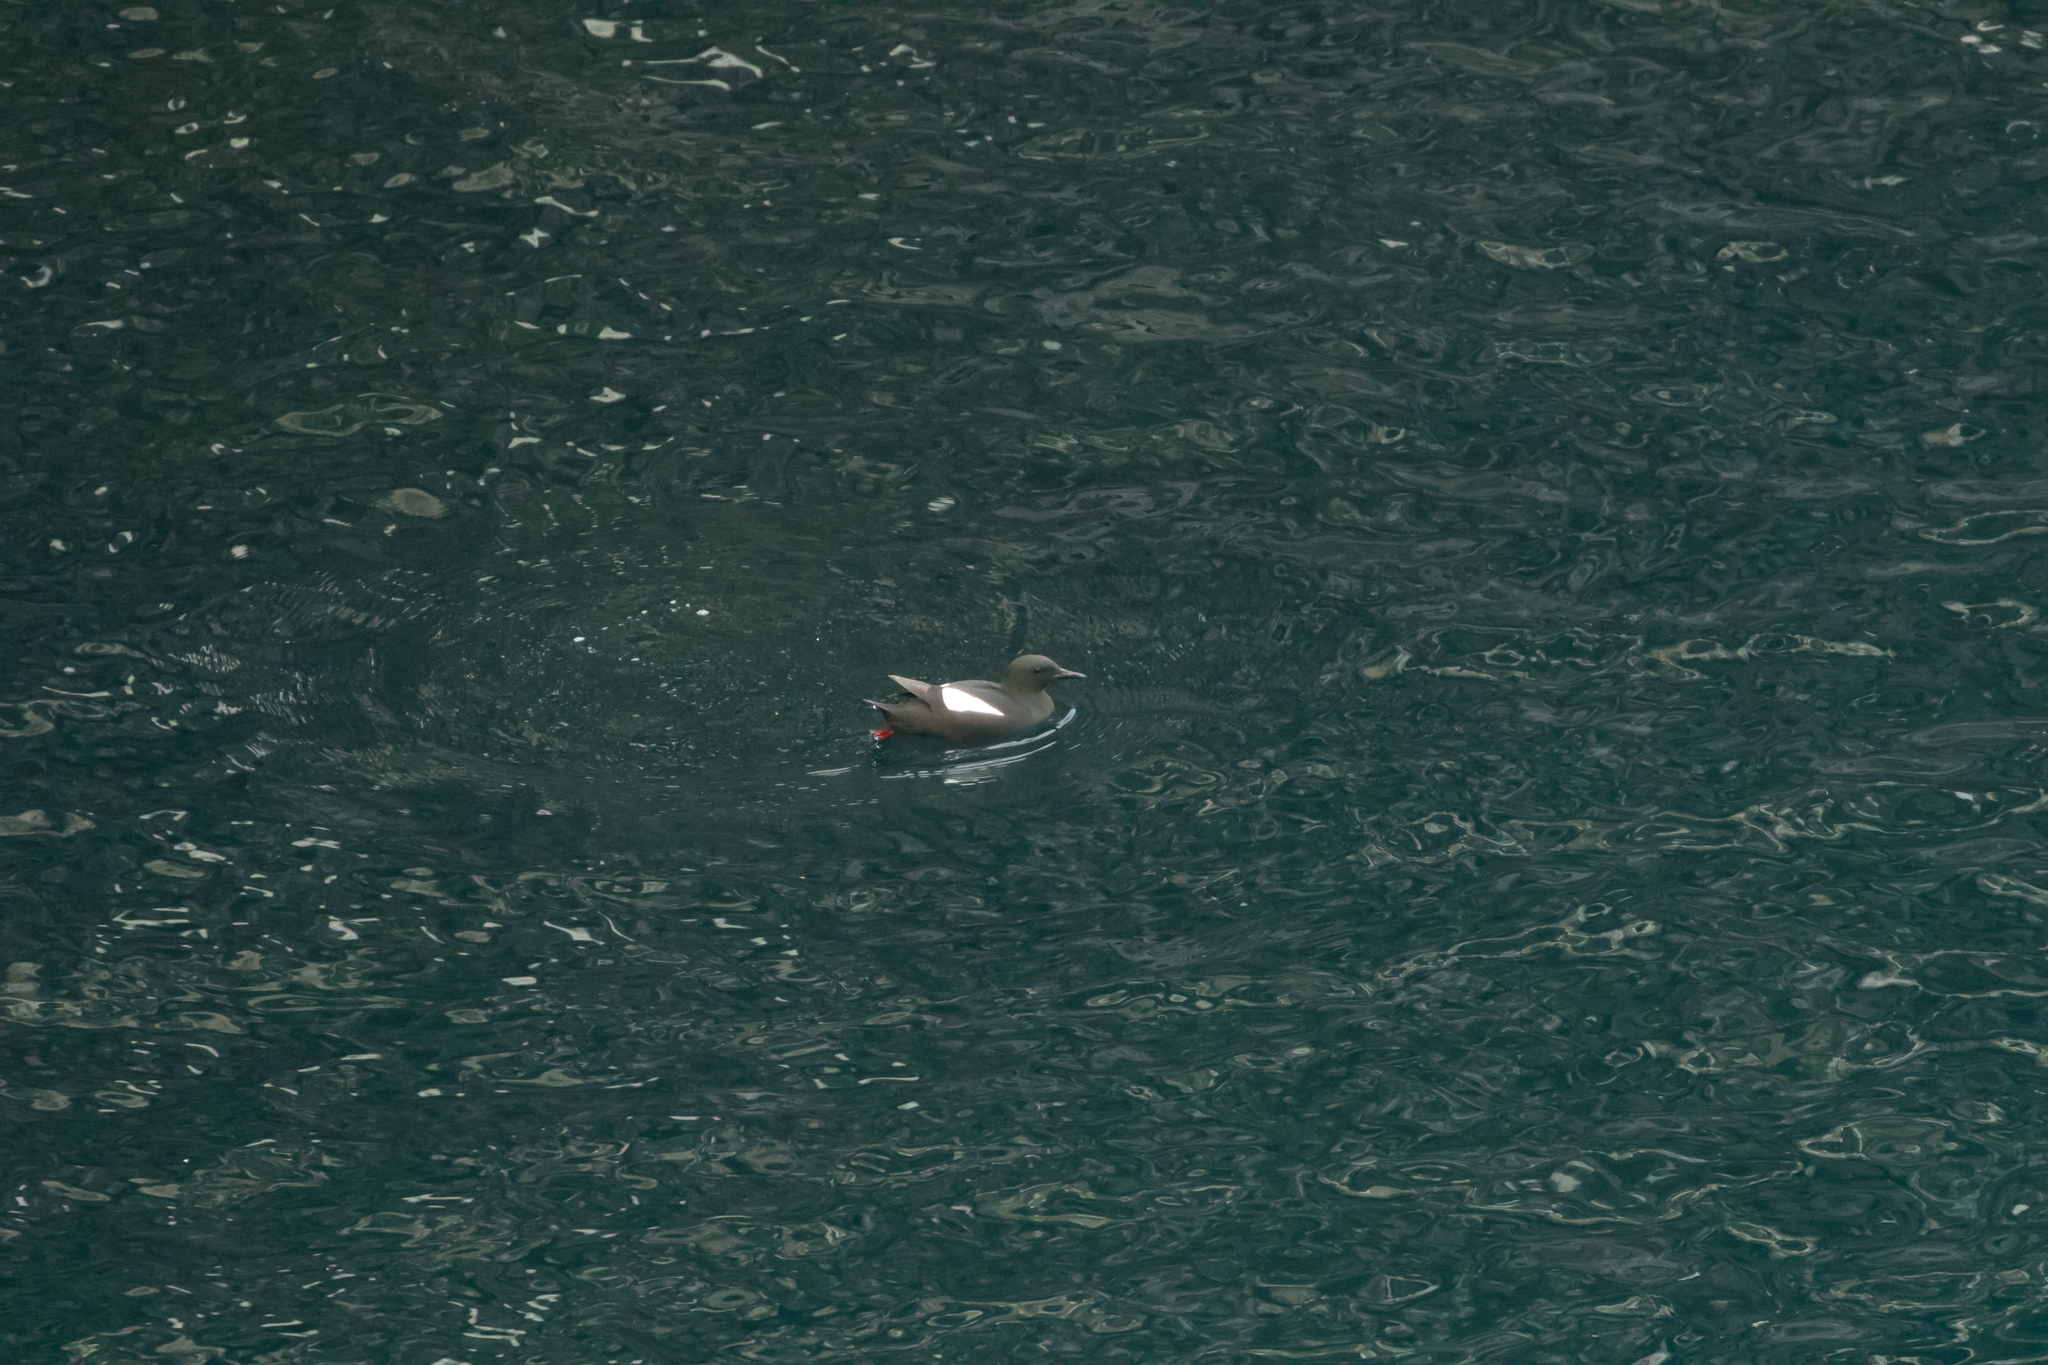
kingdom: Animalia
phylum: Chordata
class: Aves
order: Charadriiformes
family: Alcidae
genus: Cepphus
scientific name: Cepphus grylle
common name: Black guillemot
